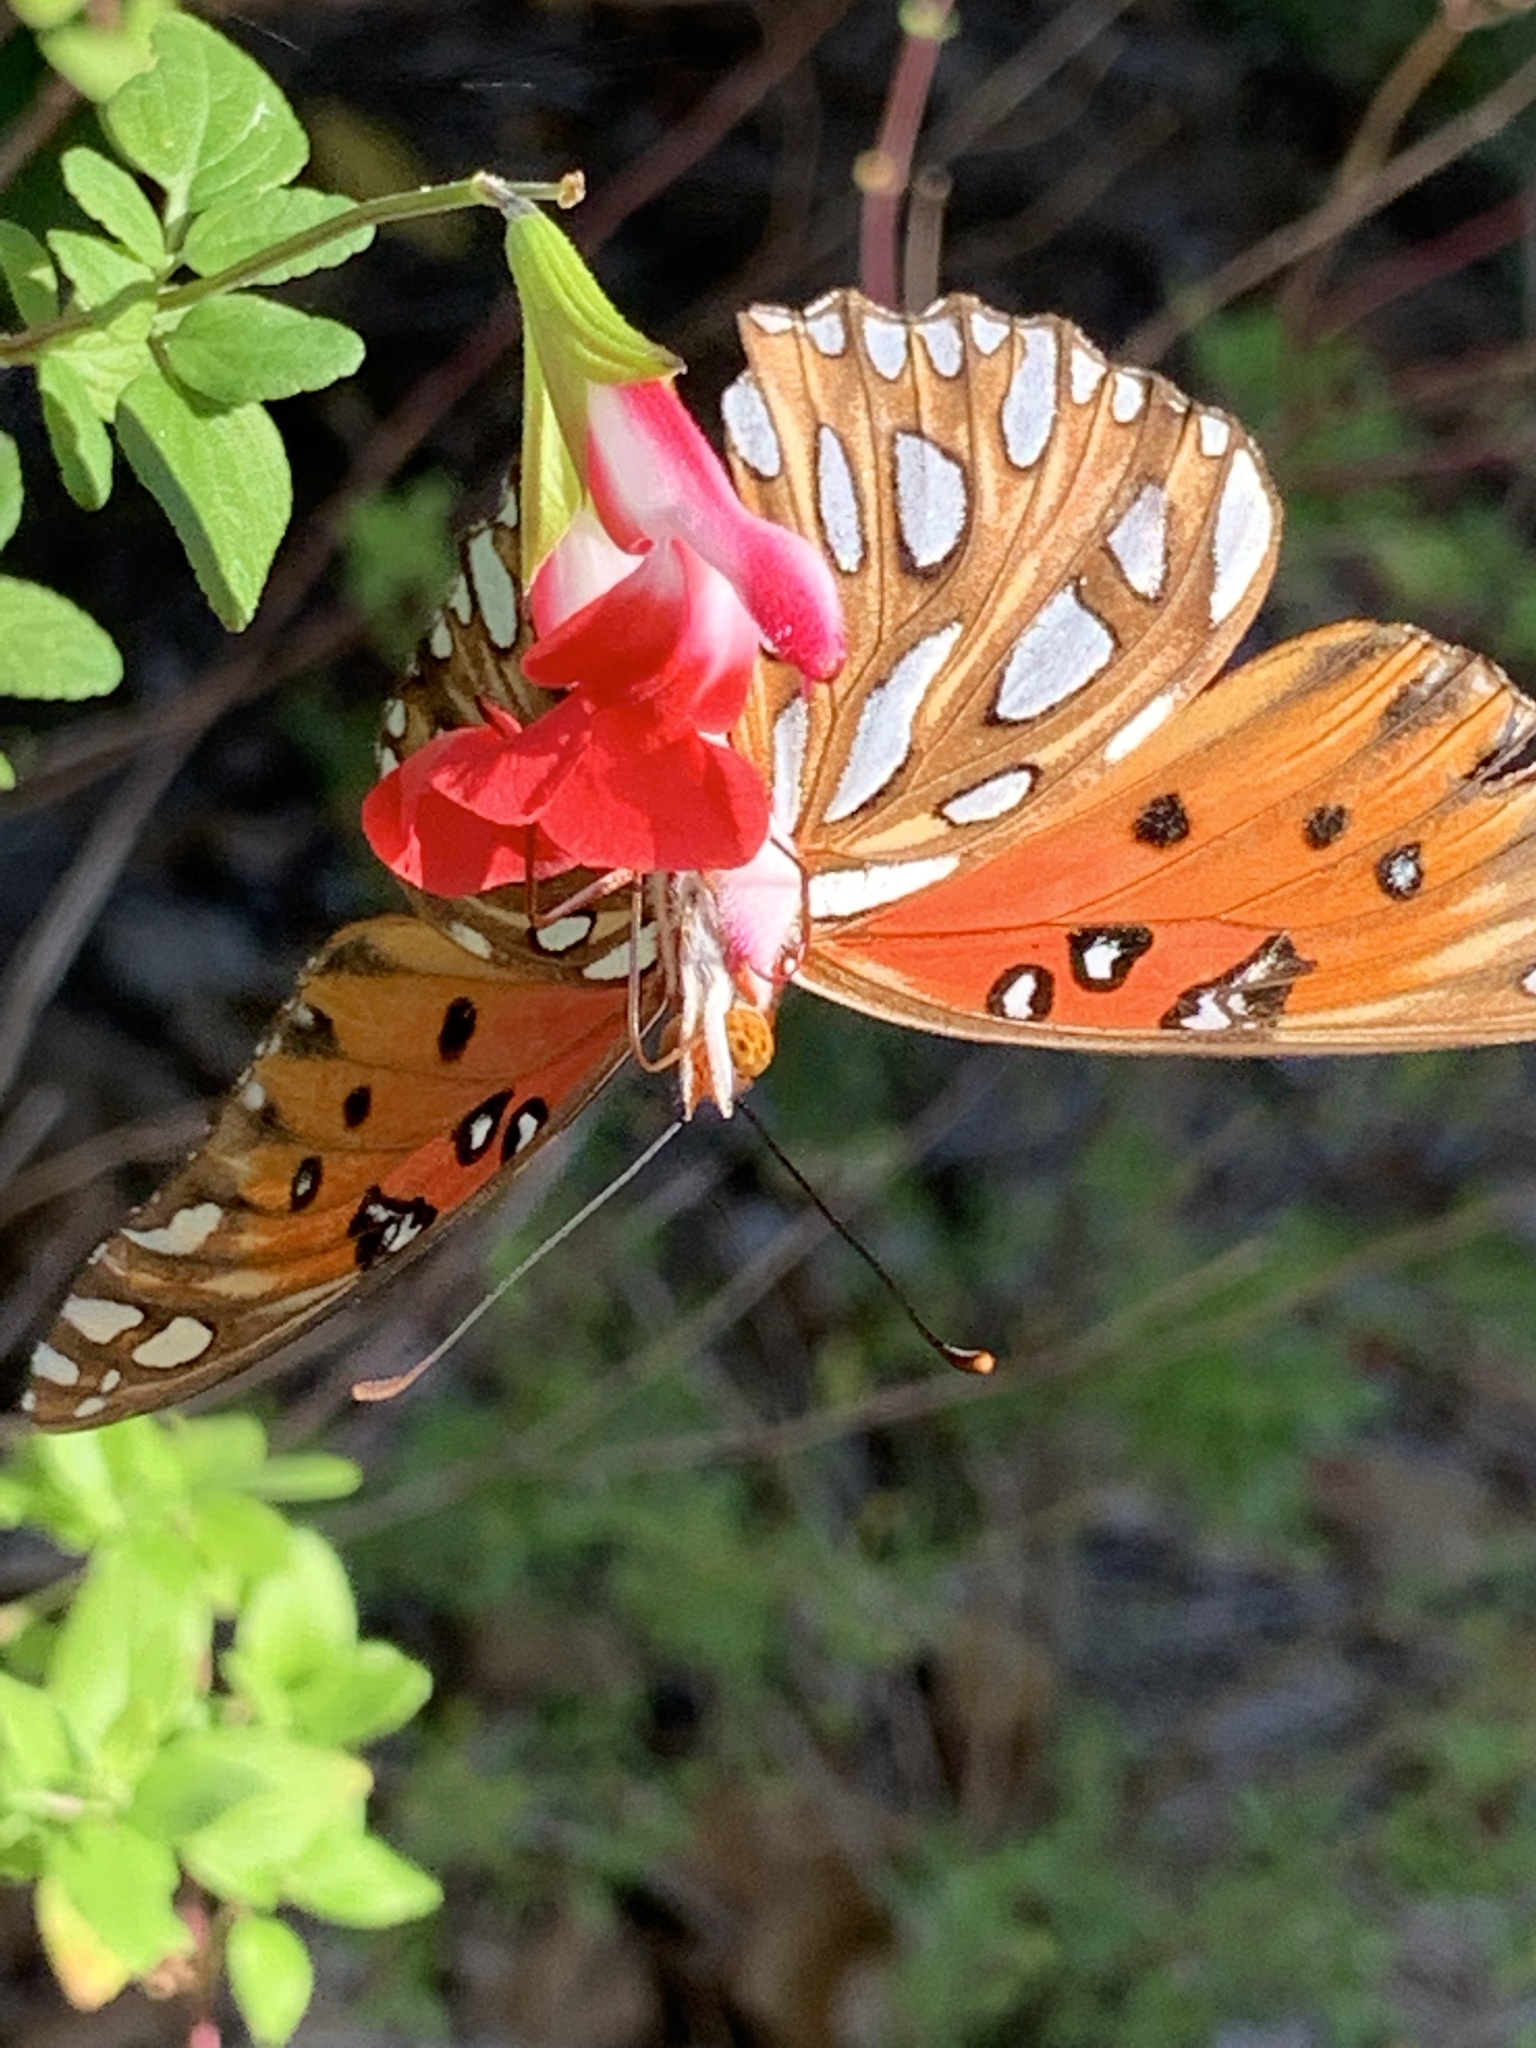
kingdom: Animalia
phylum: Arthropoda
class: Insecta
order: Lepidoptera
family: Nymphalidae
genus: Dione
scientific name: Dione vanillae
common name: Gulf fritillary
